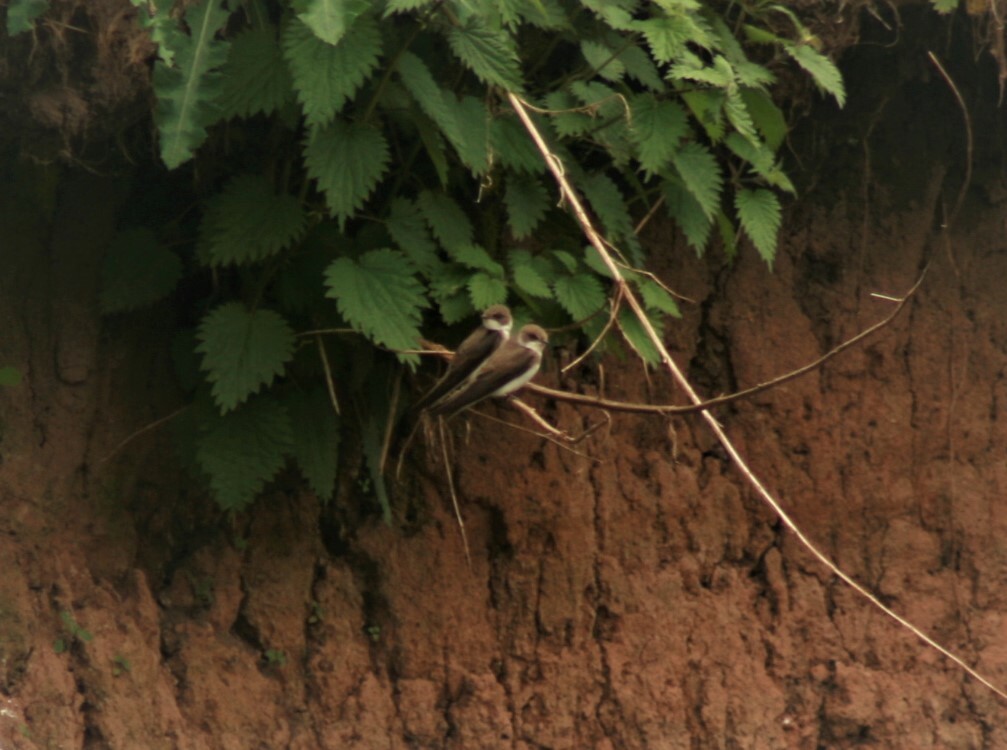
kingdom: Animalia
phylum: Chordata
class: Aves
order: Passeriformes
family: Hirundinidae
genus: Riparia
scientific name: Riparia riparia
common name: Sand martin
